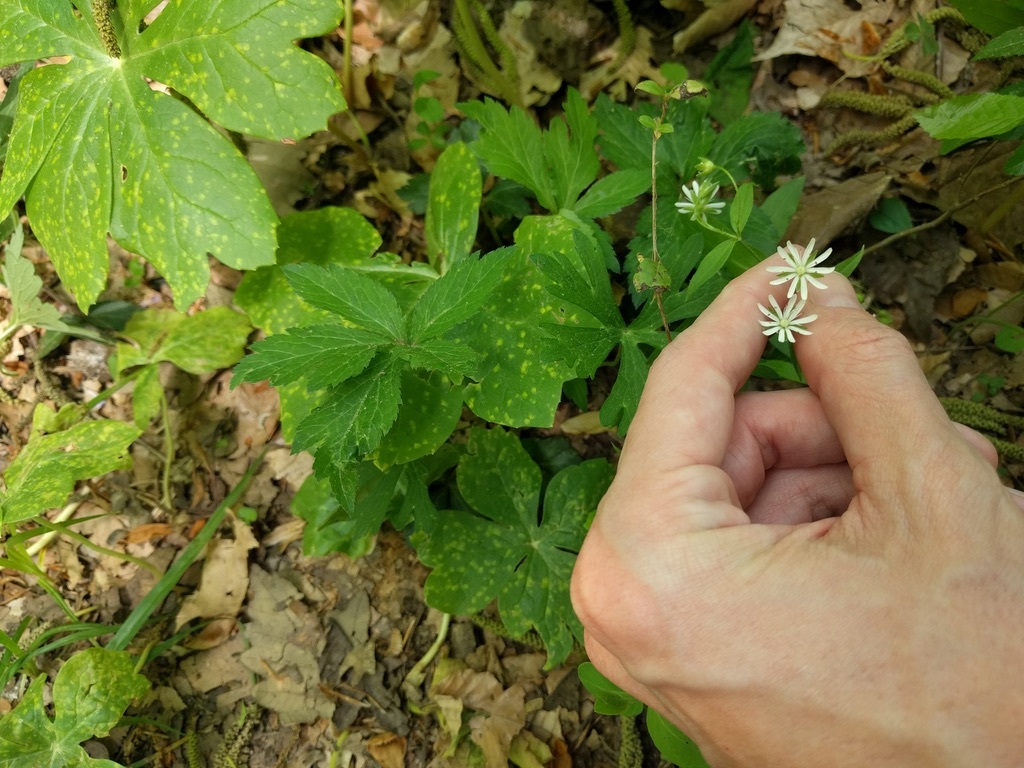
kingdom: Plantae
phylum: Tracheophyta
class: Magnoliopsida
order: Caryophyllales
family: Caryophyllaceae
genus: Stellaria
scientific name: Stellaria pubera
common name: Star chickweed
